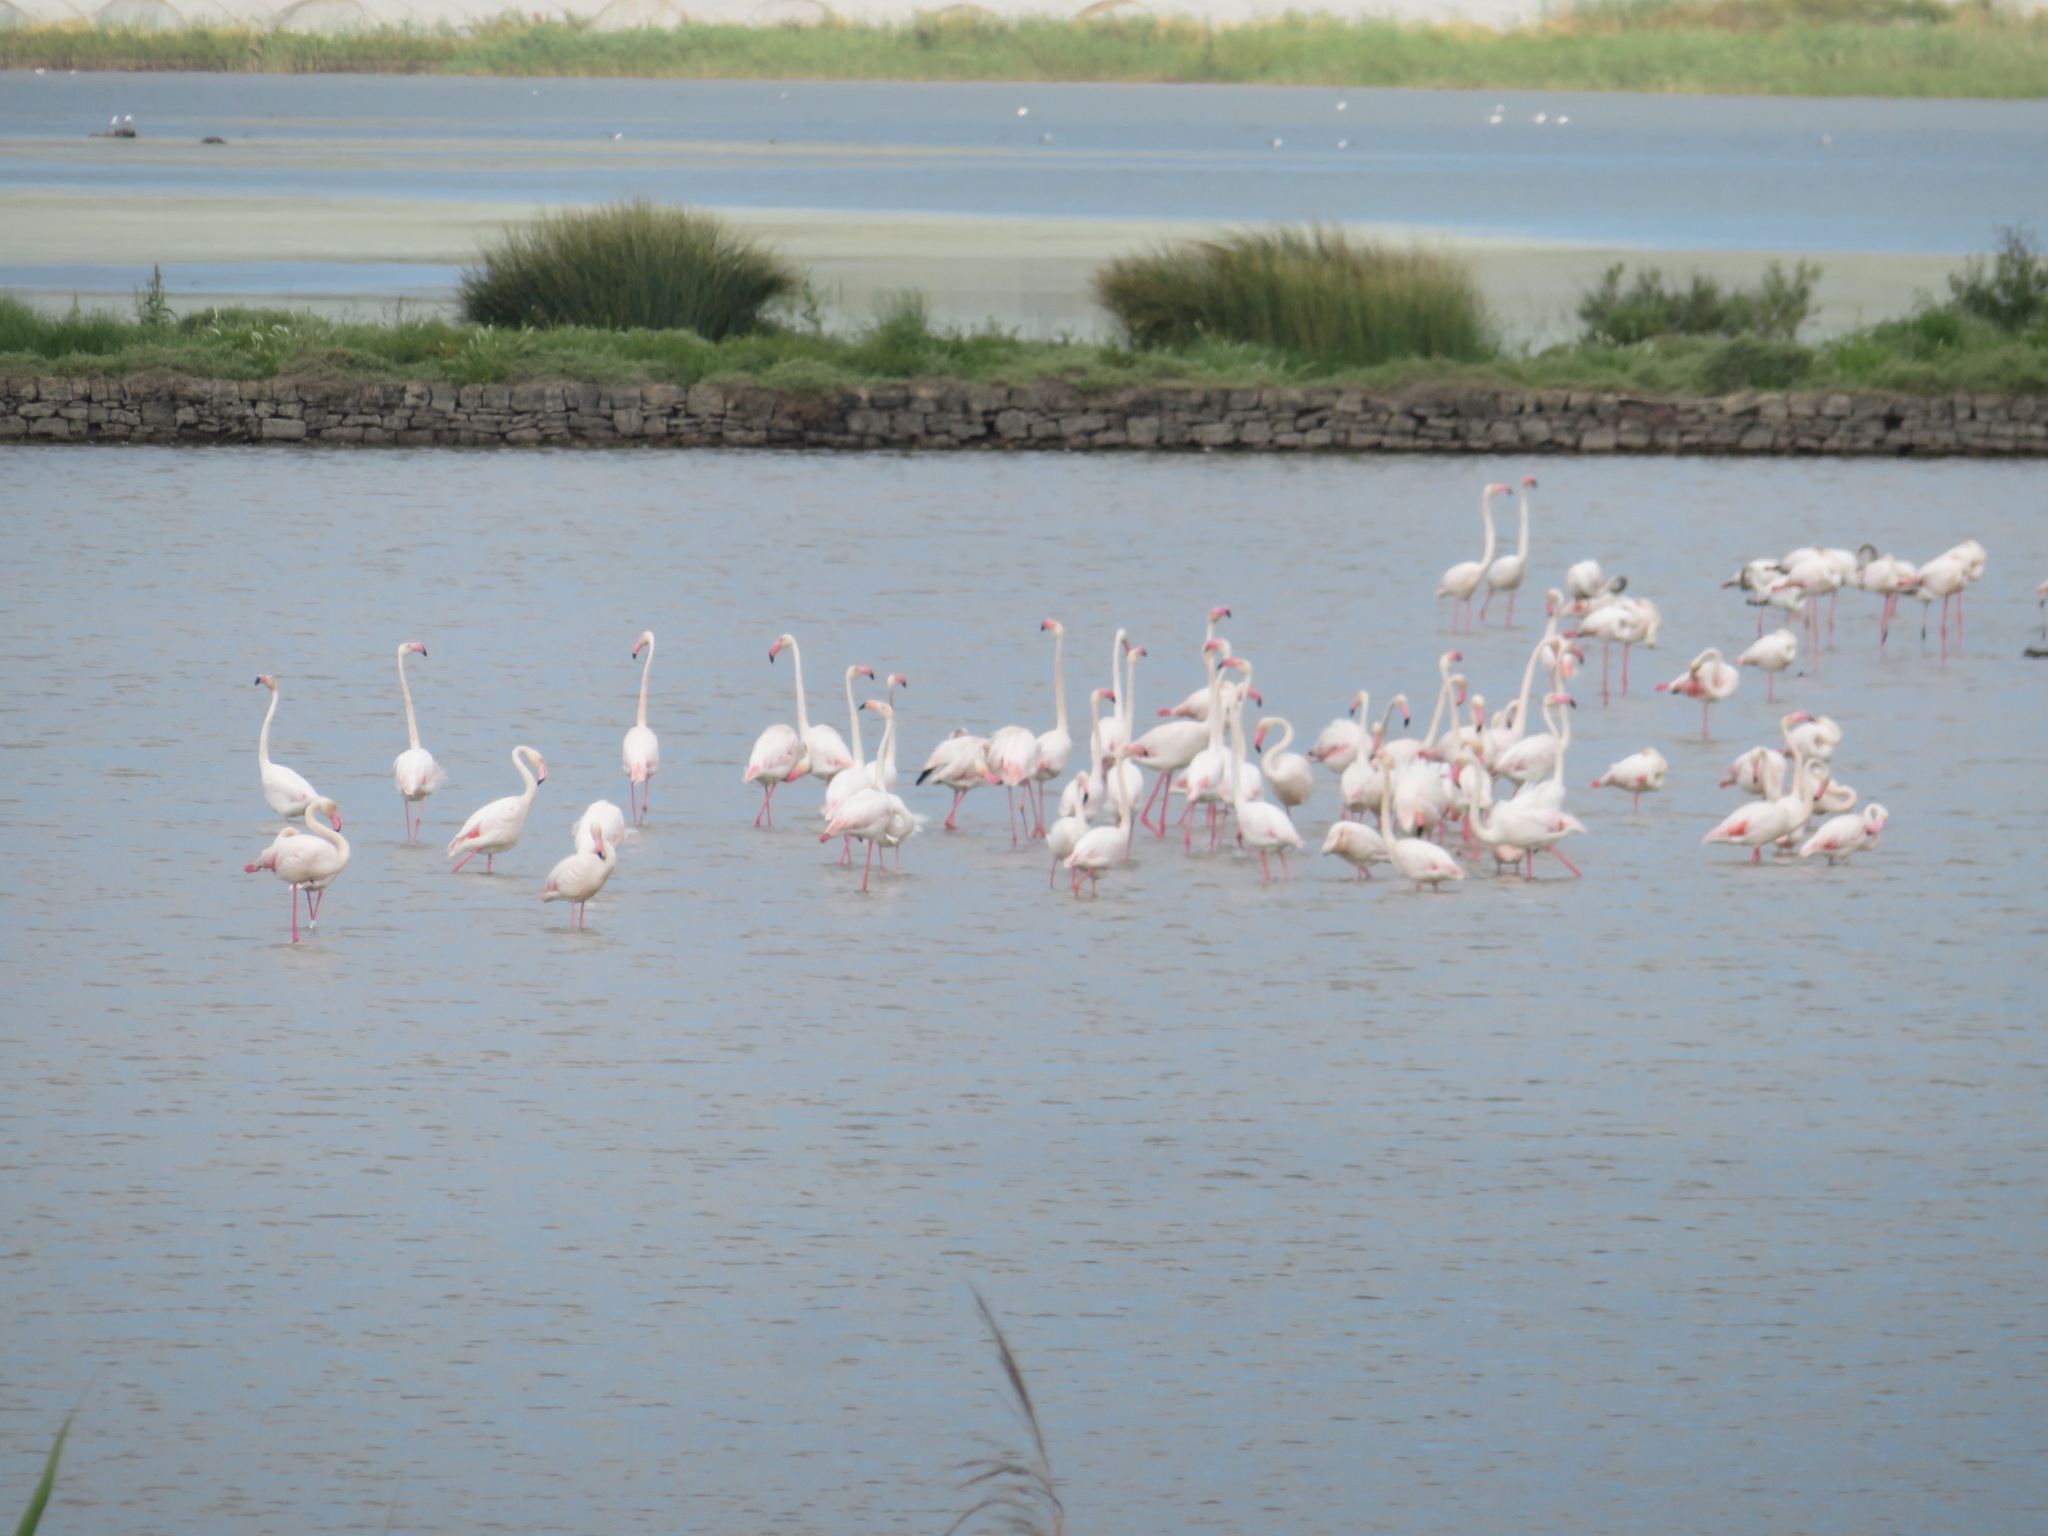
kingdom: Animalia
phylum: Chordata
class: Aves
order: Phoenicopteriformes
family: Phoenicopteridae
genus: Phoenicopterus
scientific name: Phoenicopterus roseus
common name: Greater flamingo
